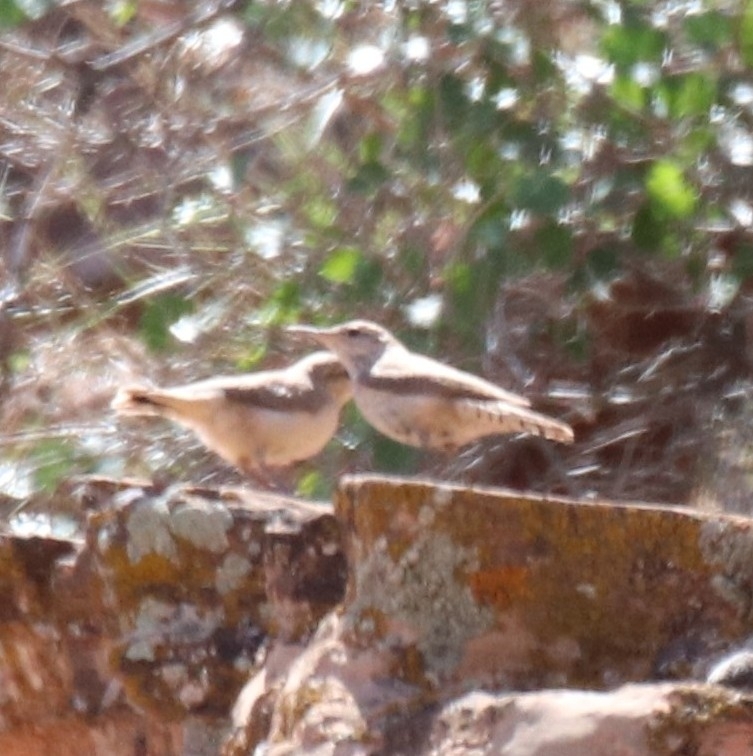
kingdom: Animalia
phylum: Chordata
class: Aves
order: Passeriformes
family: Troglodytidae
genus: Salpinctes
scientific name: Salpinctes obsoletus
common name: Rock wren
